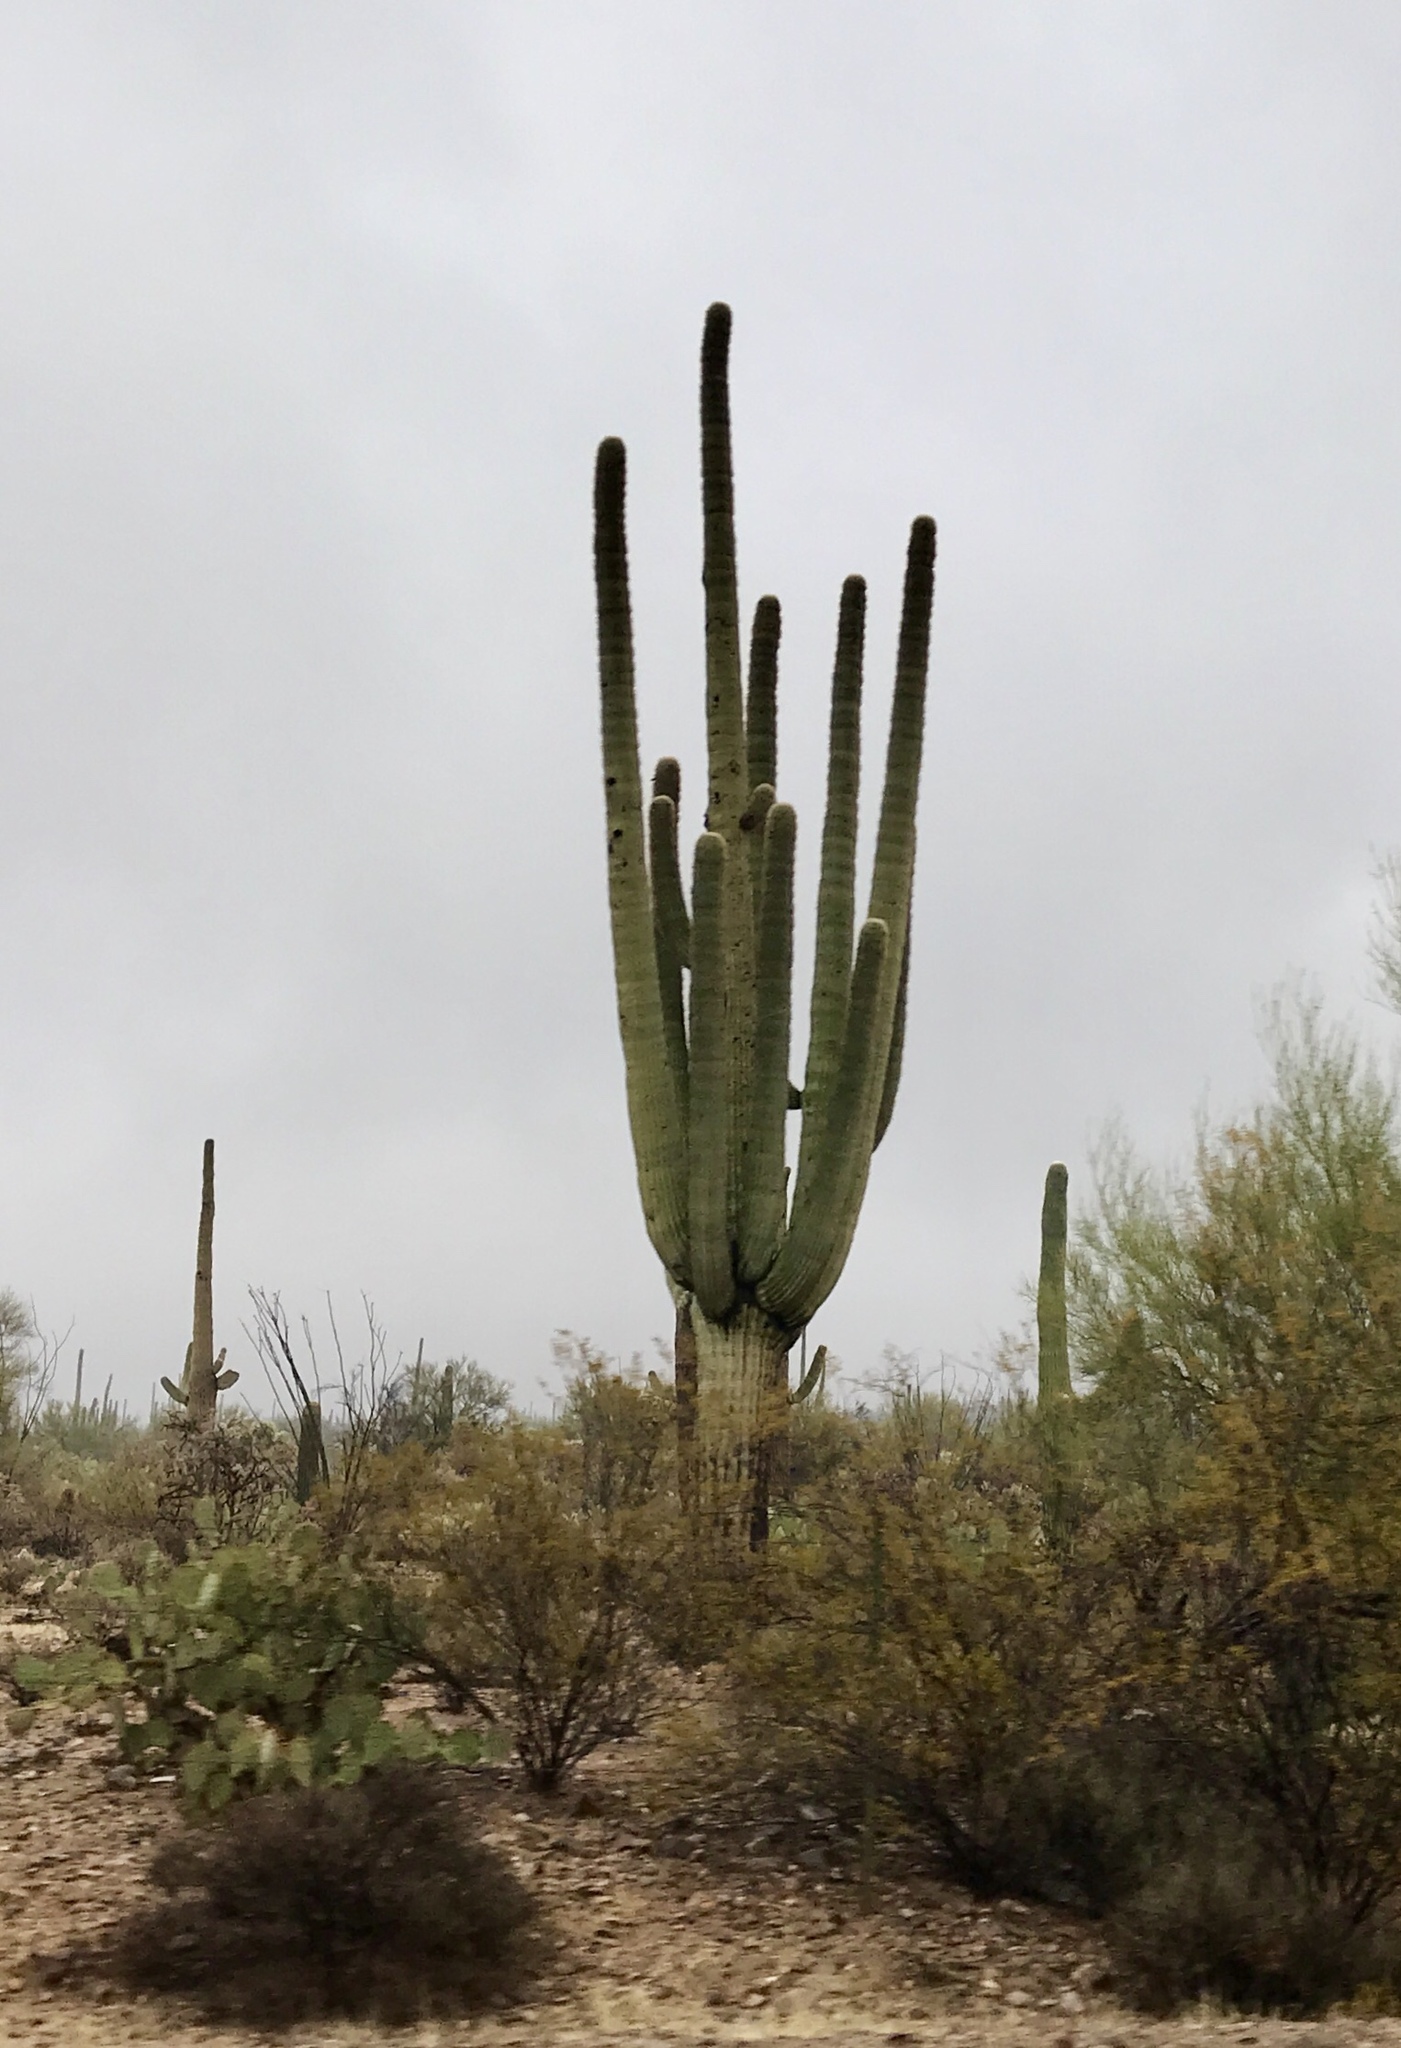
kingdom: Plantae
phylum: Tracheophyta
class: Magnoliopsida
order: Caryophyllales
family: Cactaceae
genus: Carnegiea
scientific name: Carnegiea gigantea
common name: Saguaro
